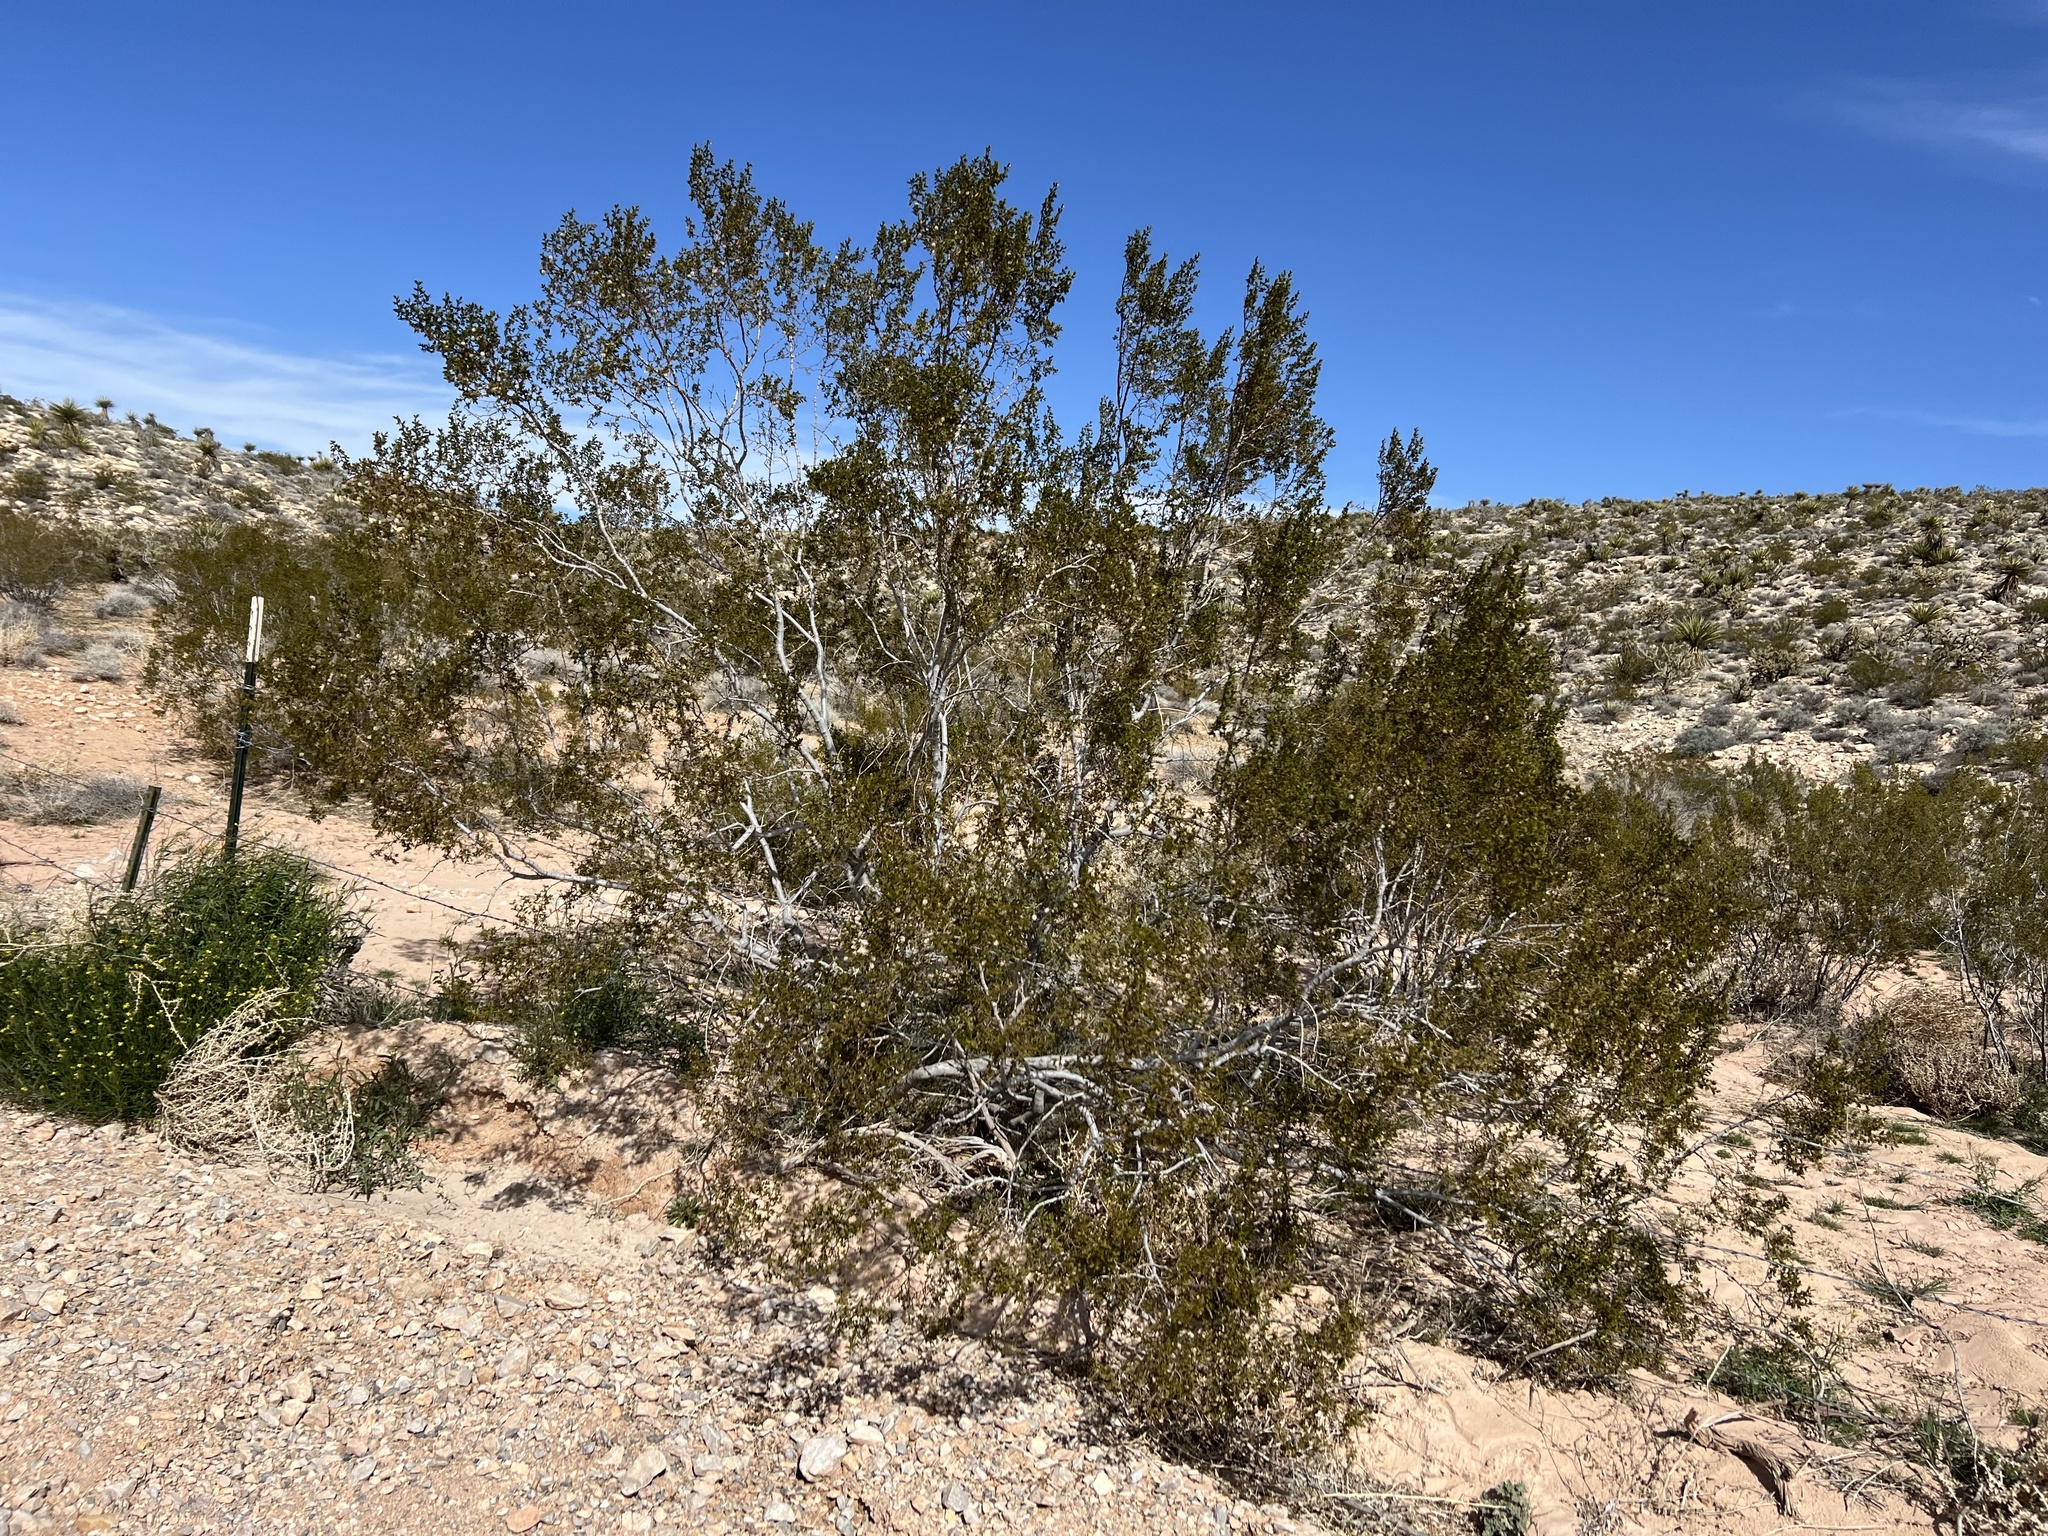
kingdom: Plantae
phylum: Tracheophyta
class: Magnoliopsida
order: Zygophyllales
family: Zygophyllaceae
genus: Larrea
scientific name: Larrea tridentata
